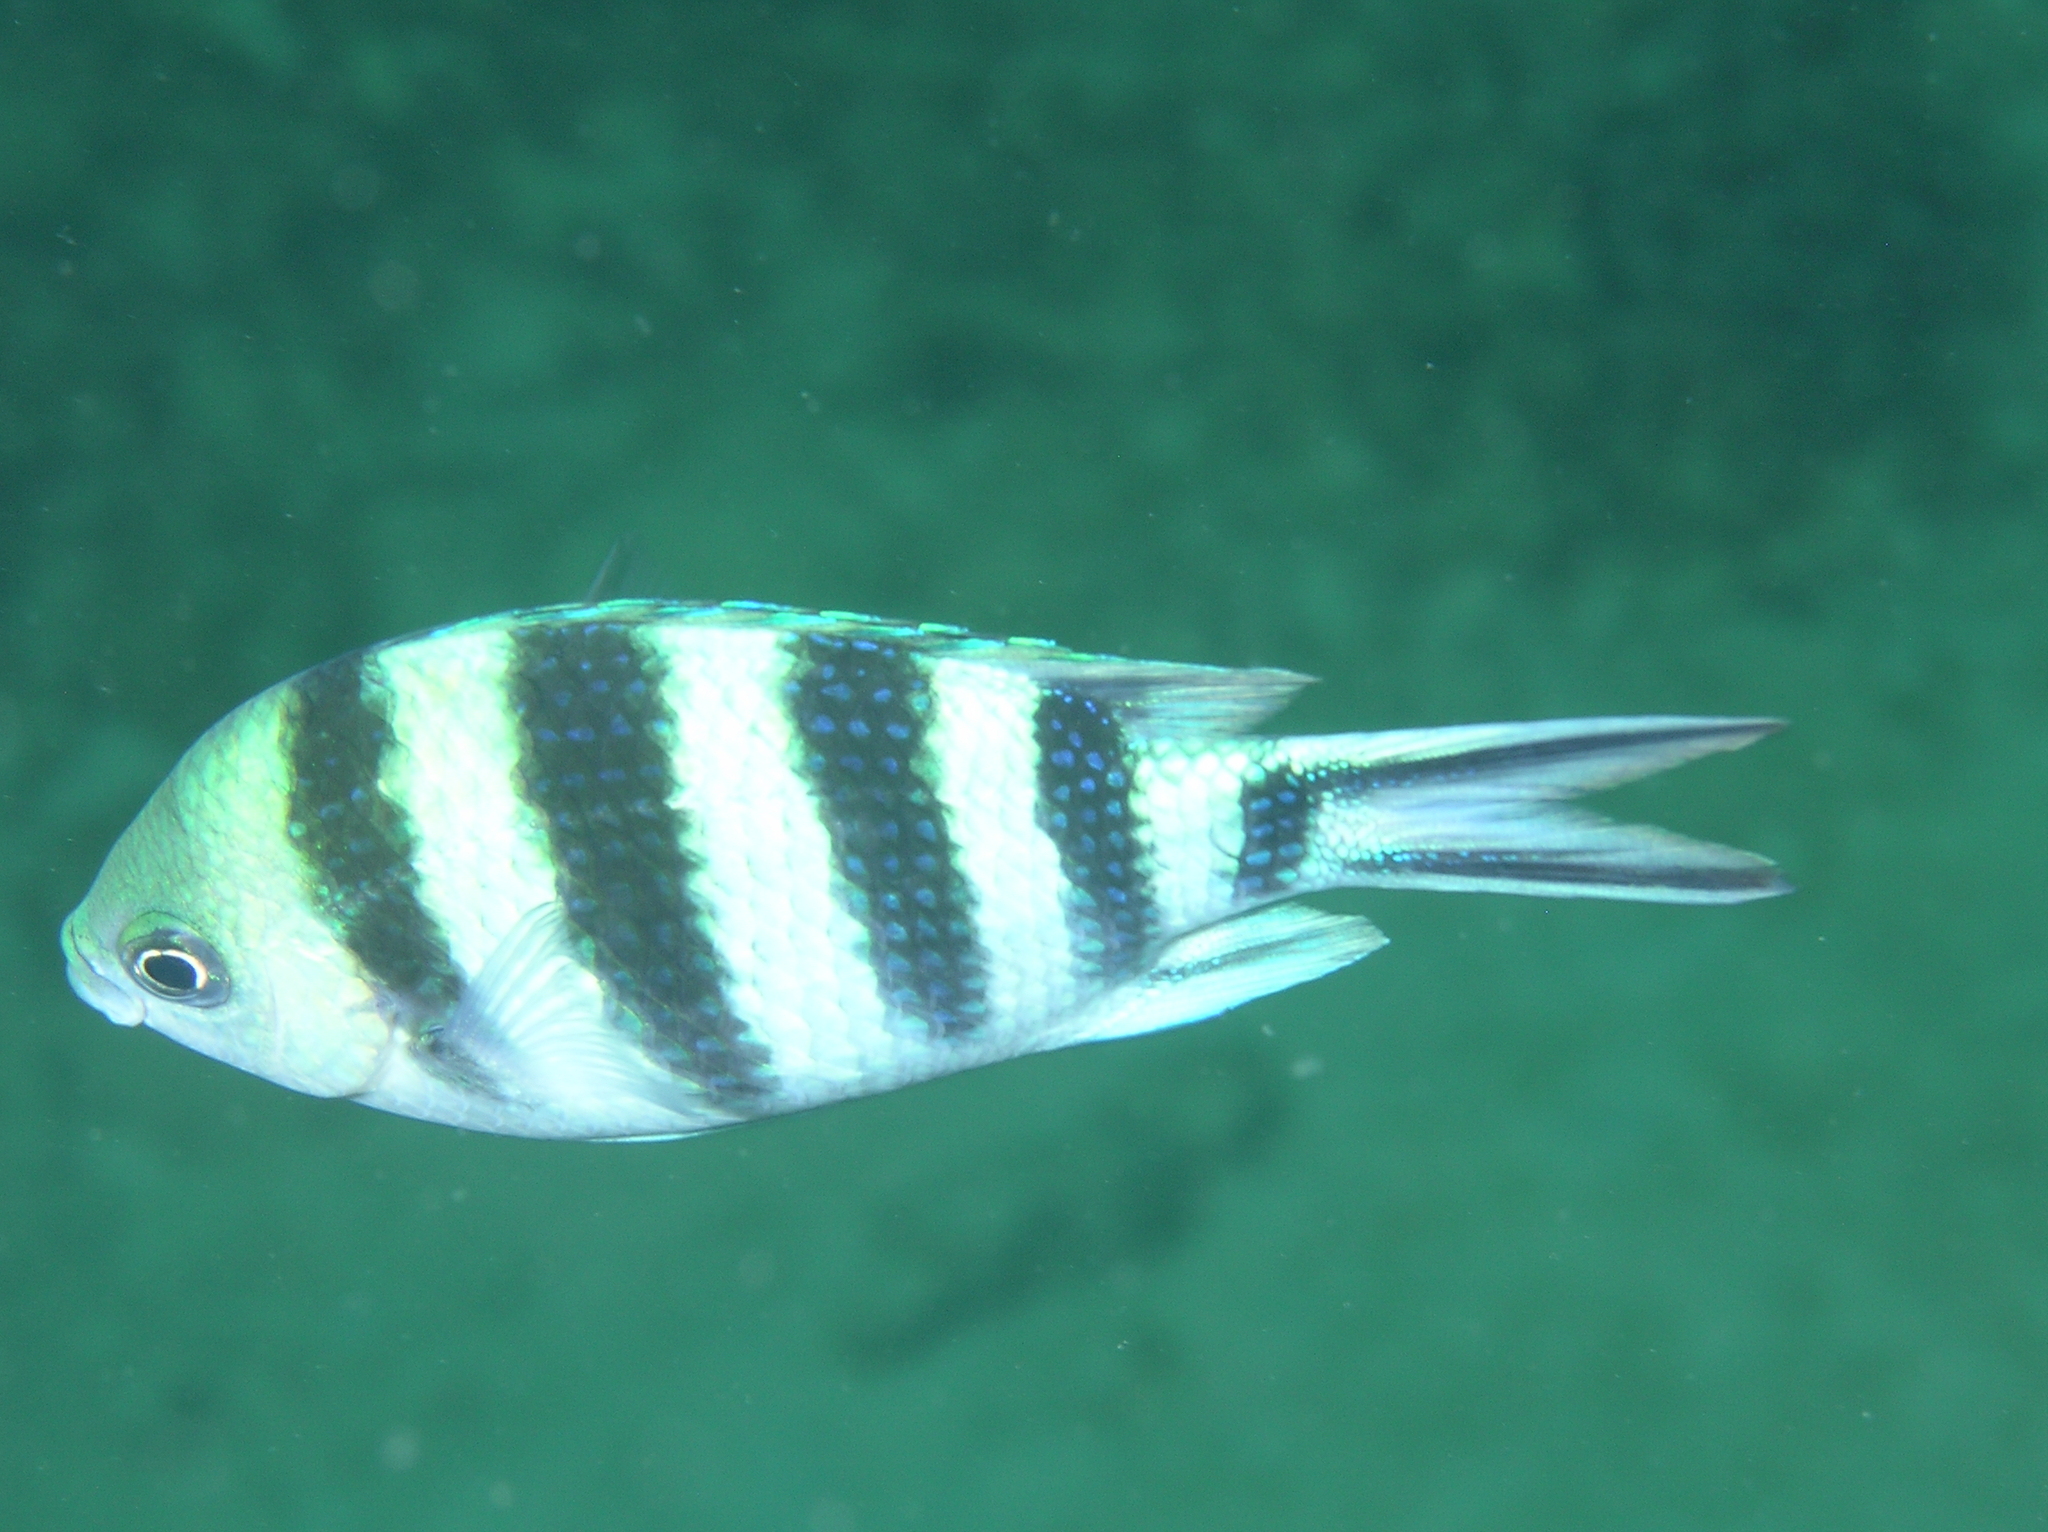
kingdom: Animalia
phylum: Chordata
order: Perciformes
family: Pomacentridae
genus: Abudefduf
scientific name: Abudefduf sexfasciatus
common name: Scissortail sergeant
